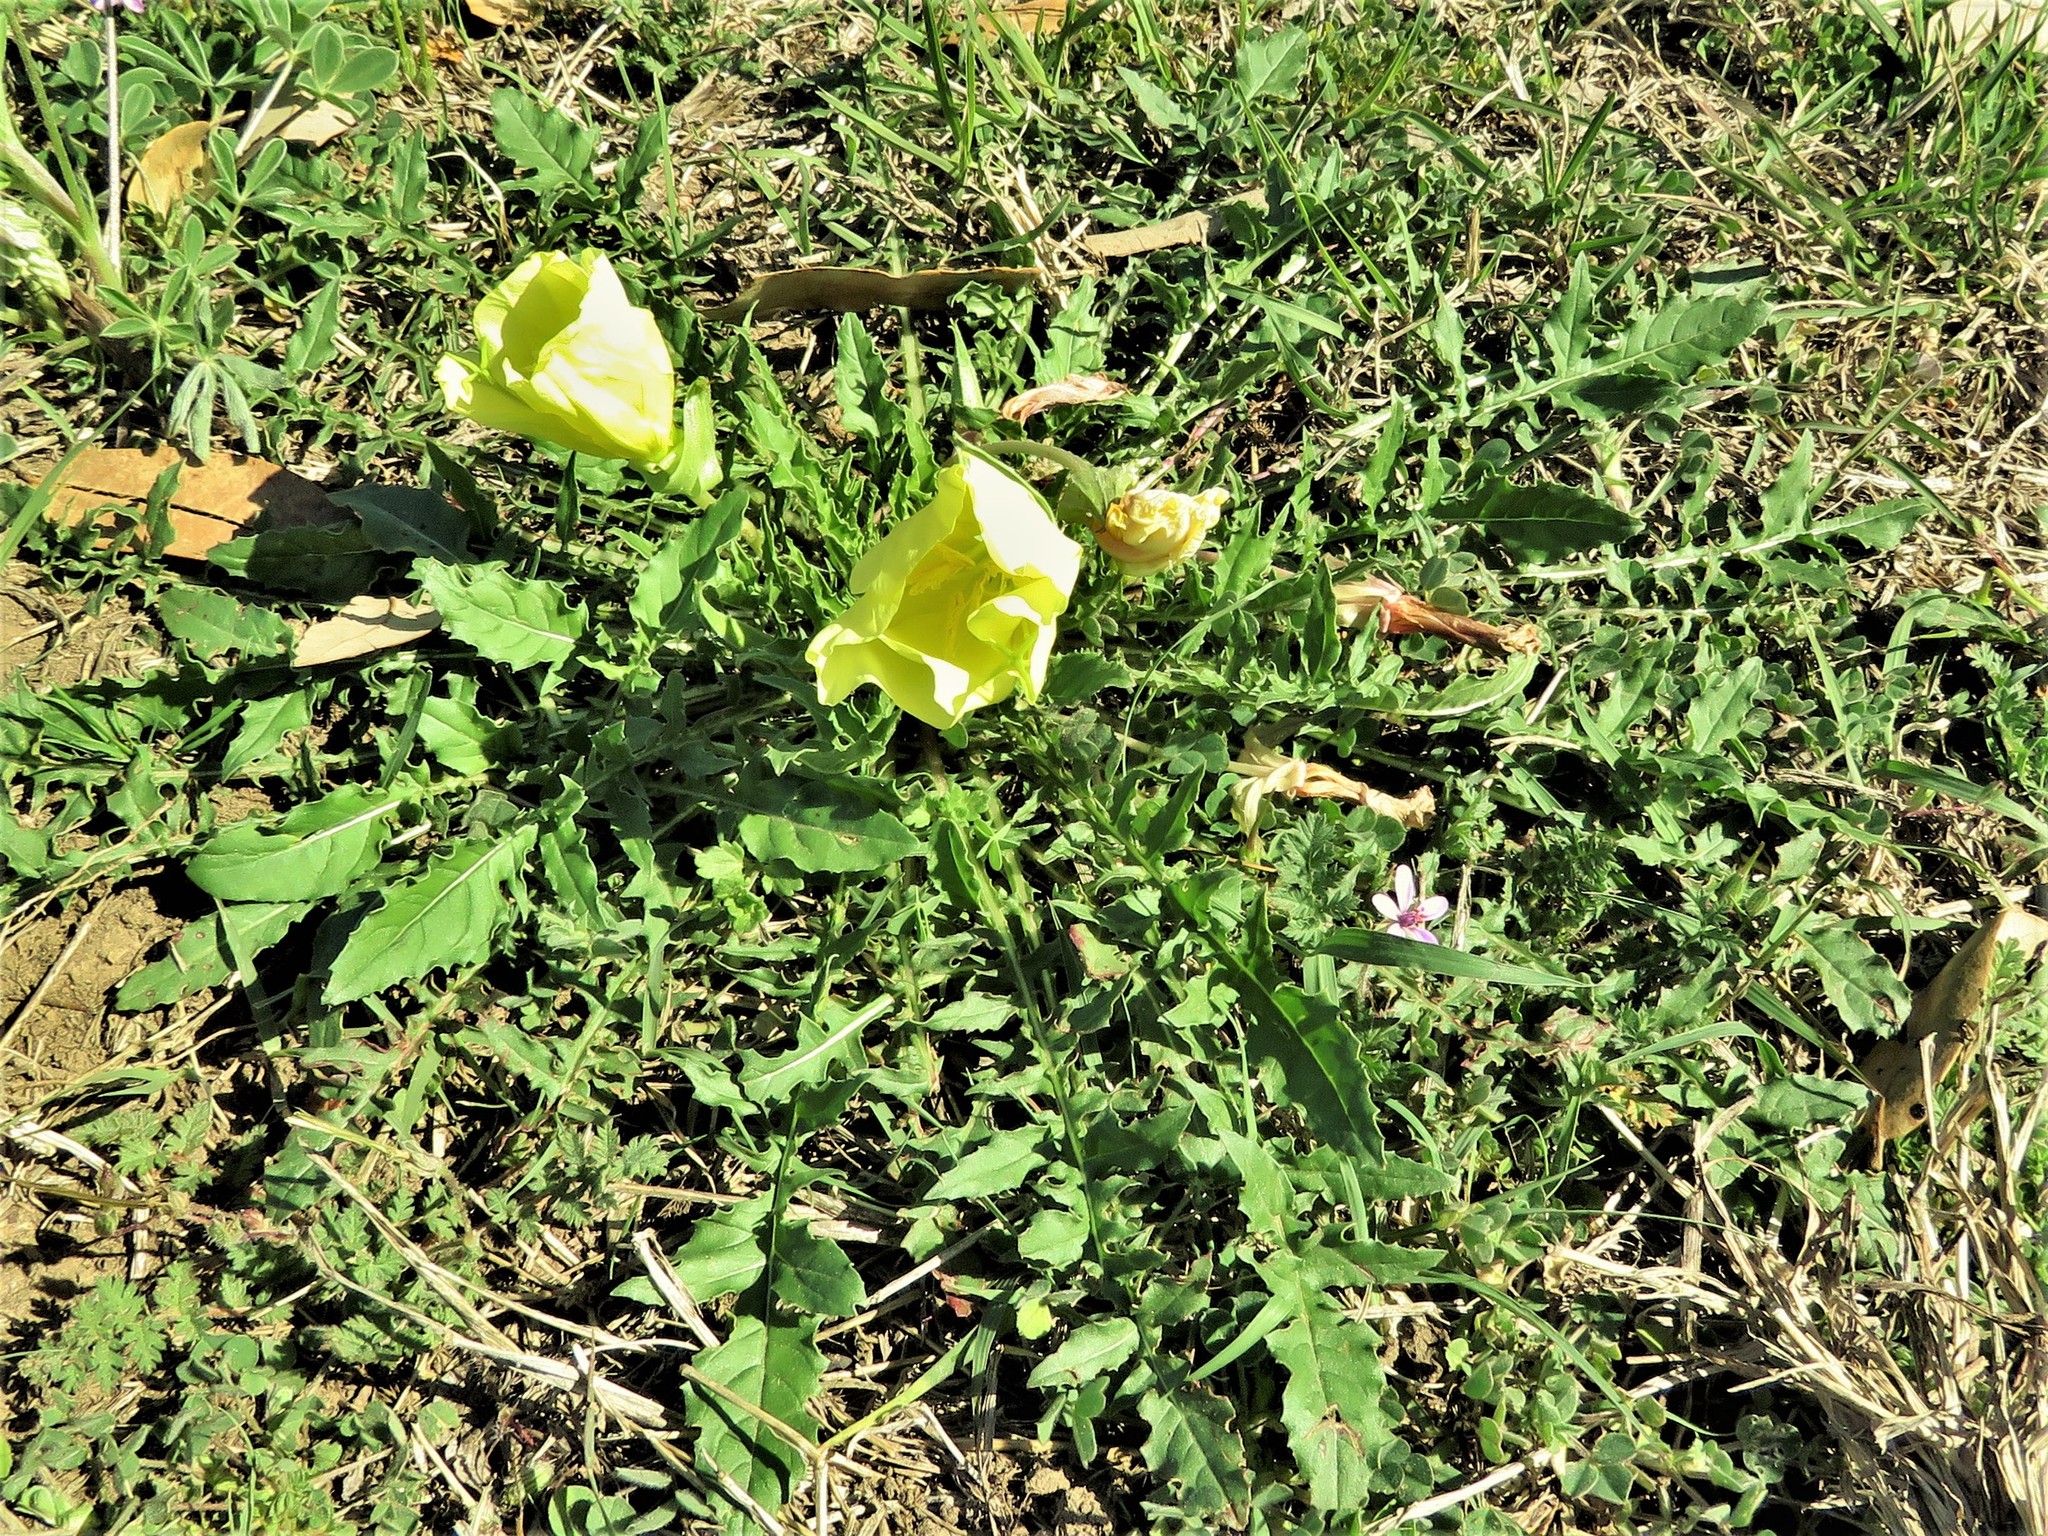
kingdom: Plantae
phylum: Tracheophyta
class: Magnoliopsida
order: Myrtales
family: Onagraceae
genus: Oenothera
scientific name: Oenothera triloba
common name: Sessile evening-primrose
